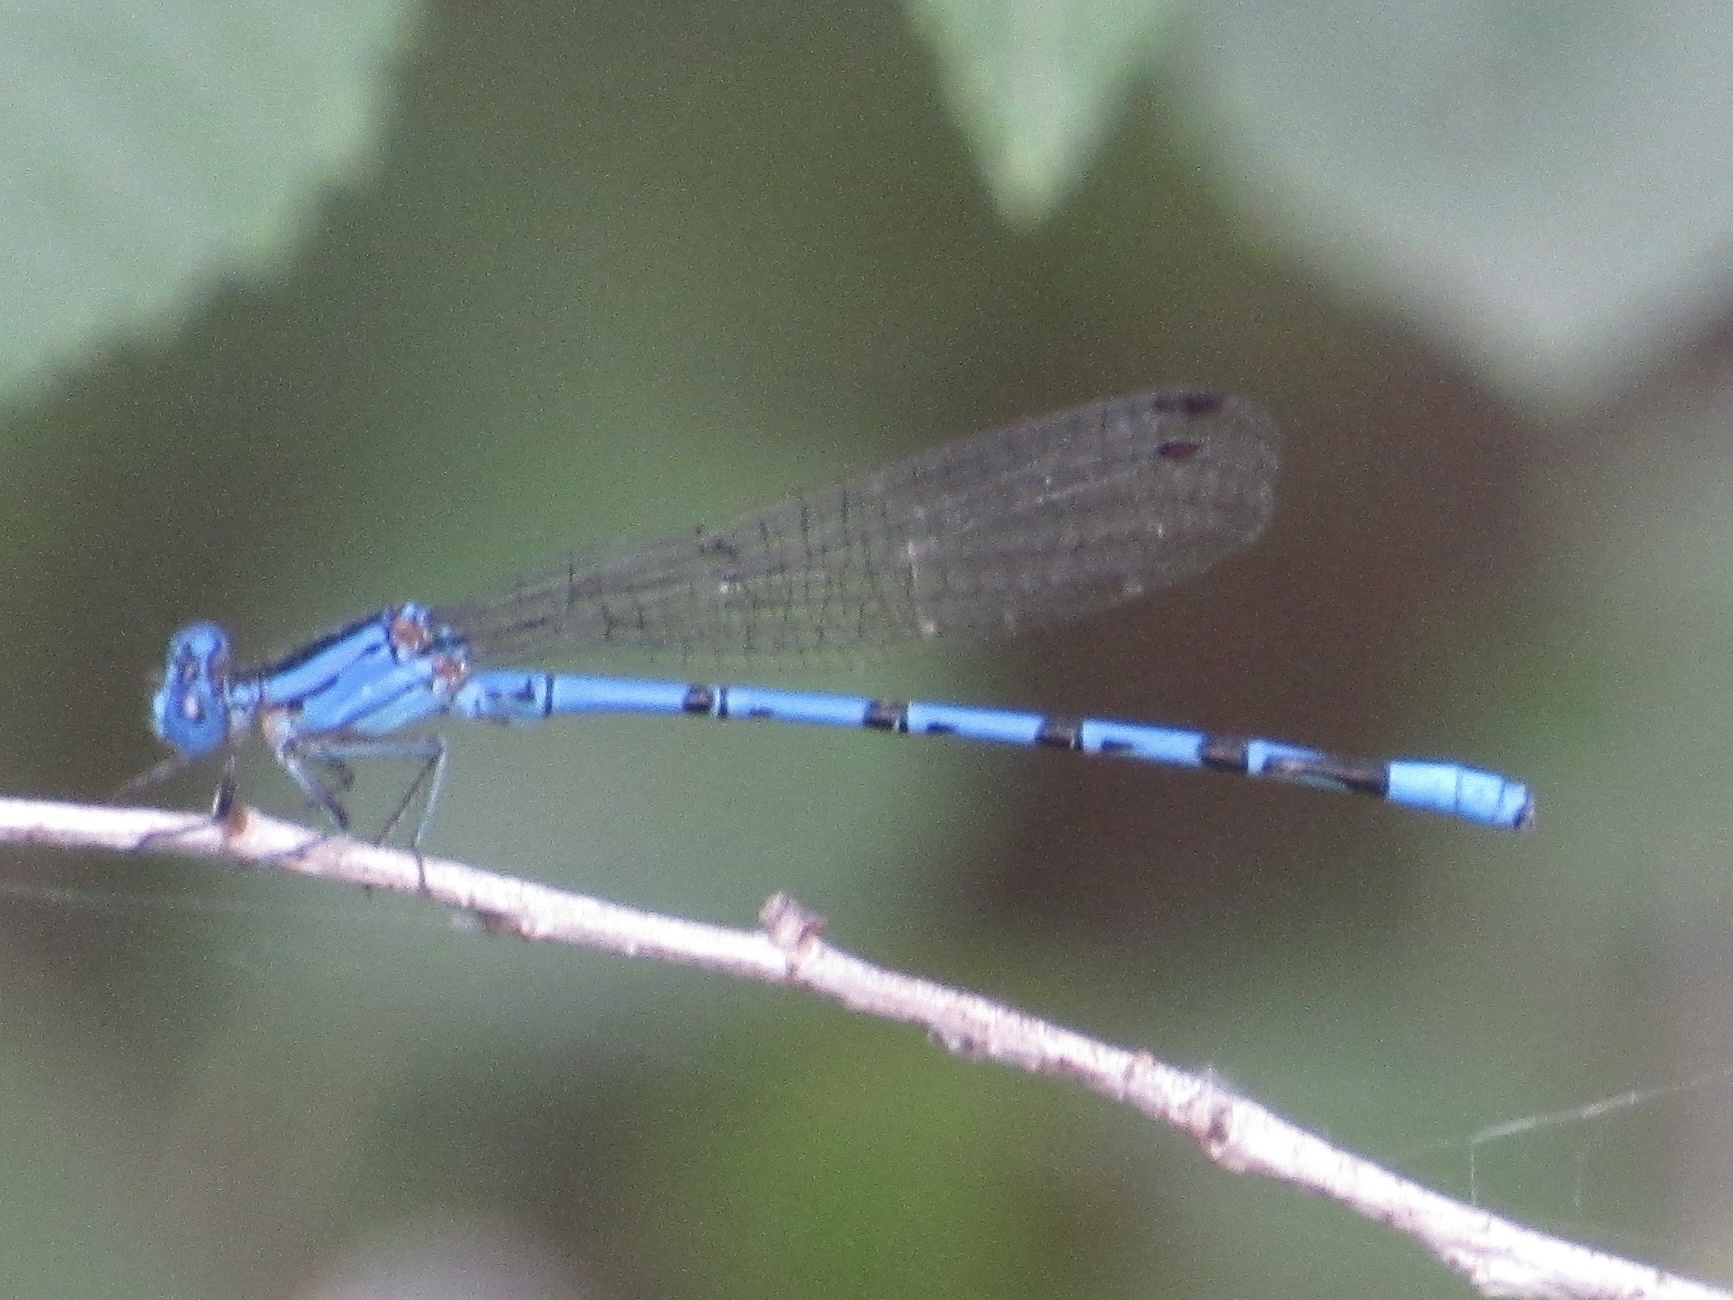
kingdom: Animalia
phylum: Arthropoda
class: Insecta
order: Odonata
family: Coenagrionidae
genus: Argia
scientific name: Argia funebris
